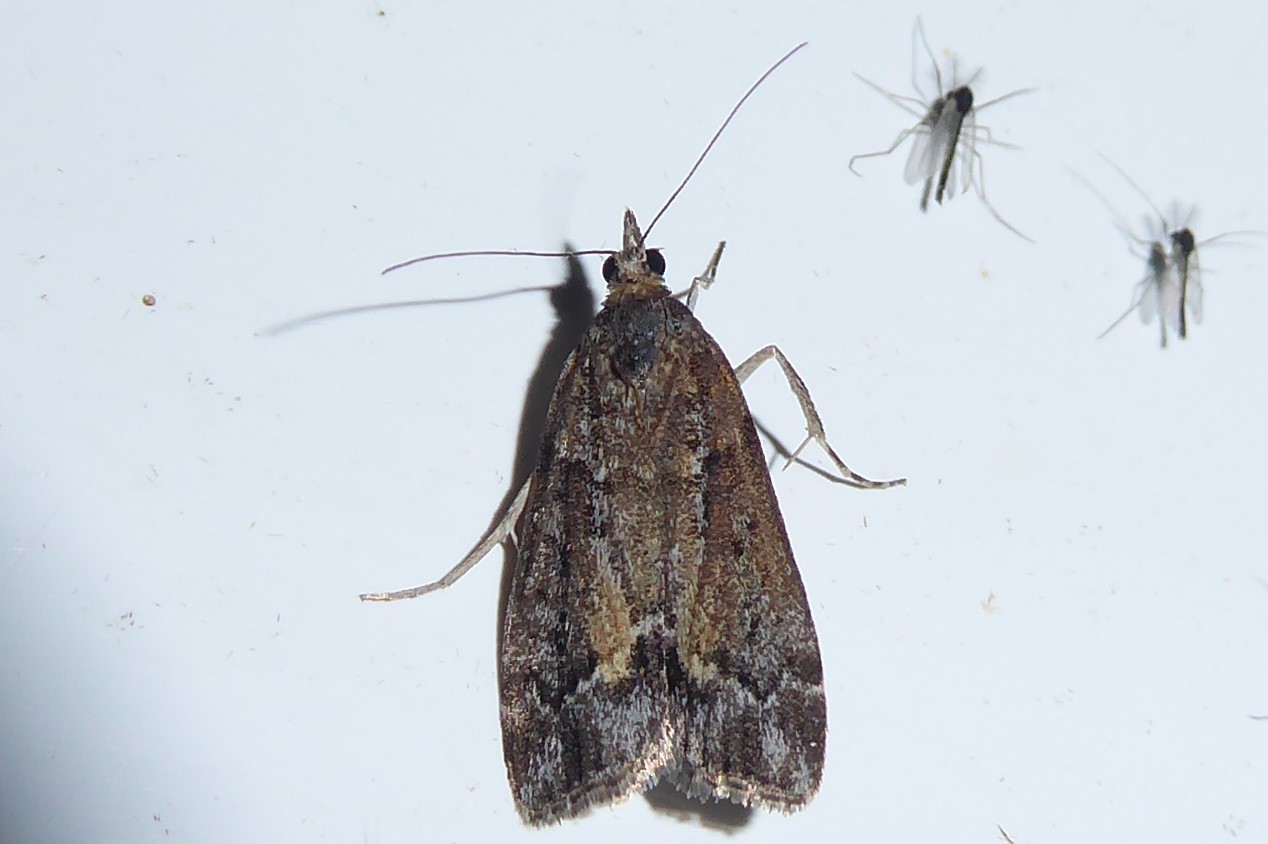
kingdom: Animalia
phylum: Arthropoda
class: Insecta
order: Lepidoptera
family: Crambidae
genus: Eudonia
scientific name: Eudonia submarginalis
